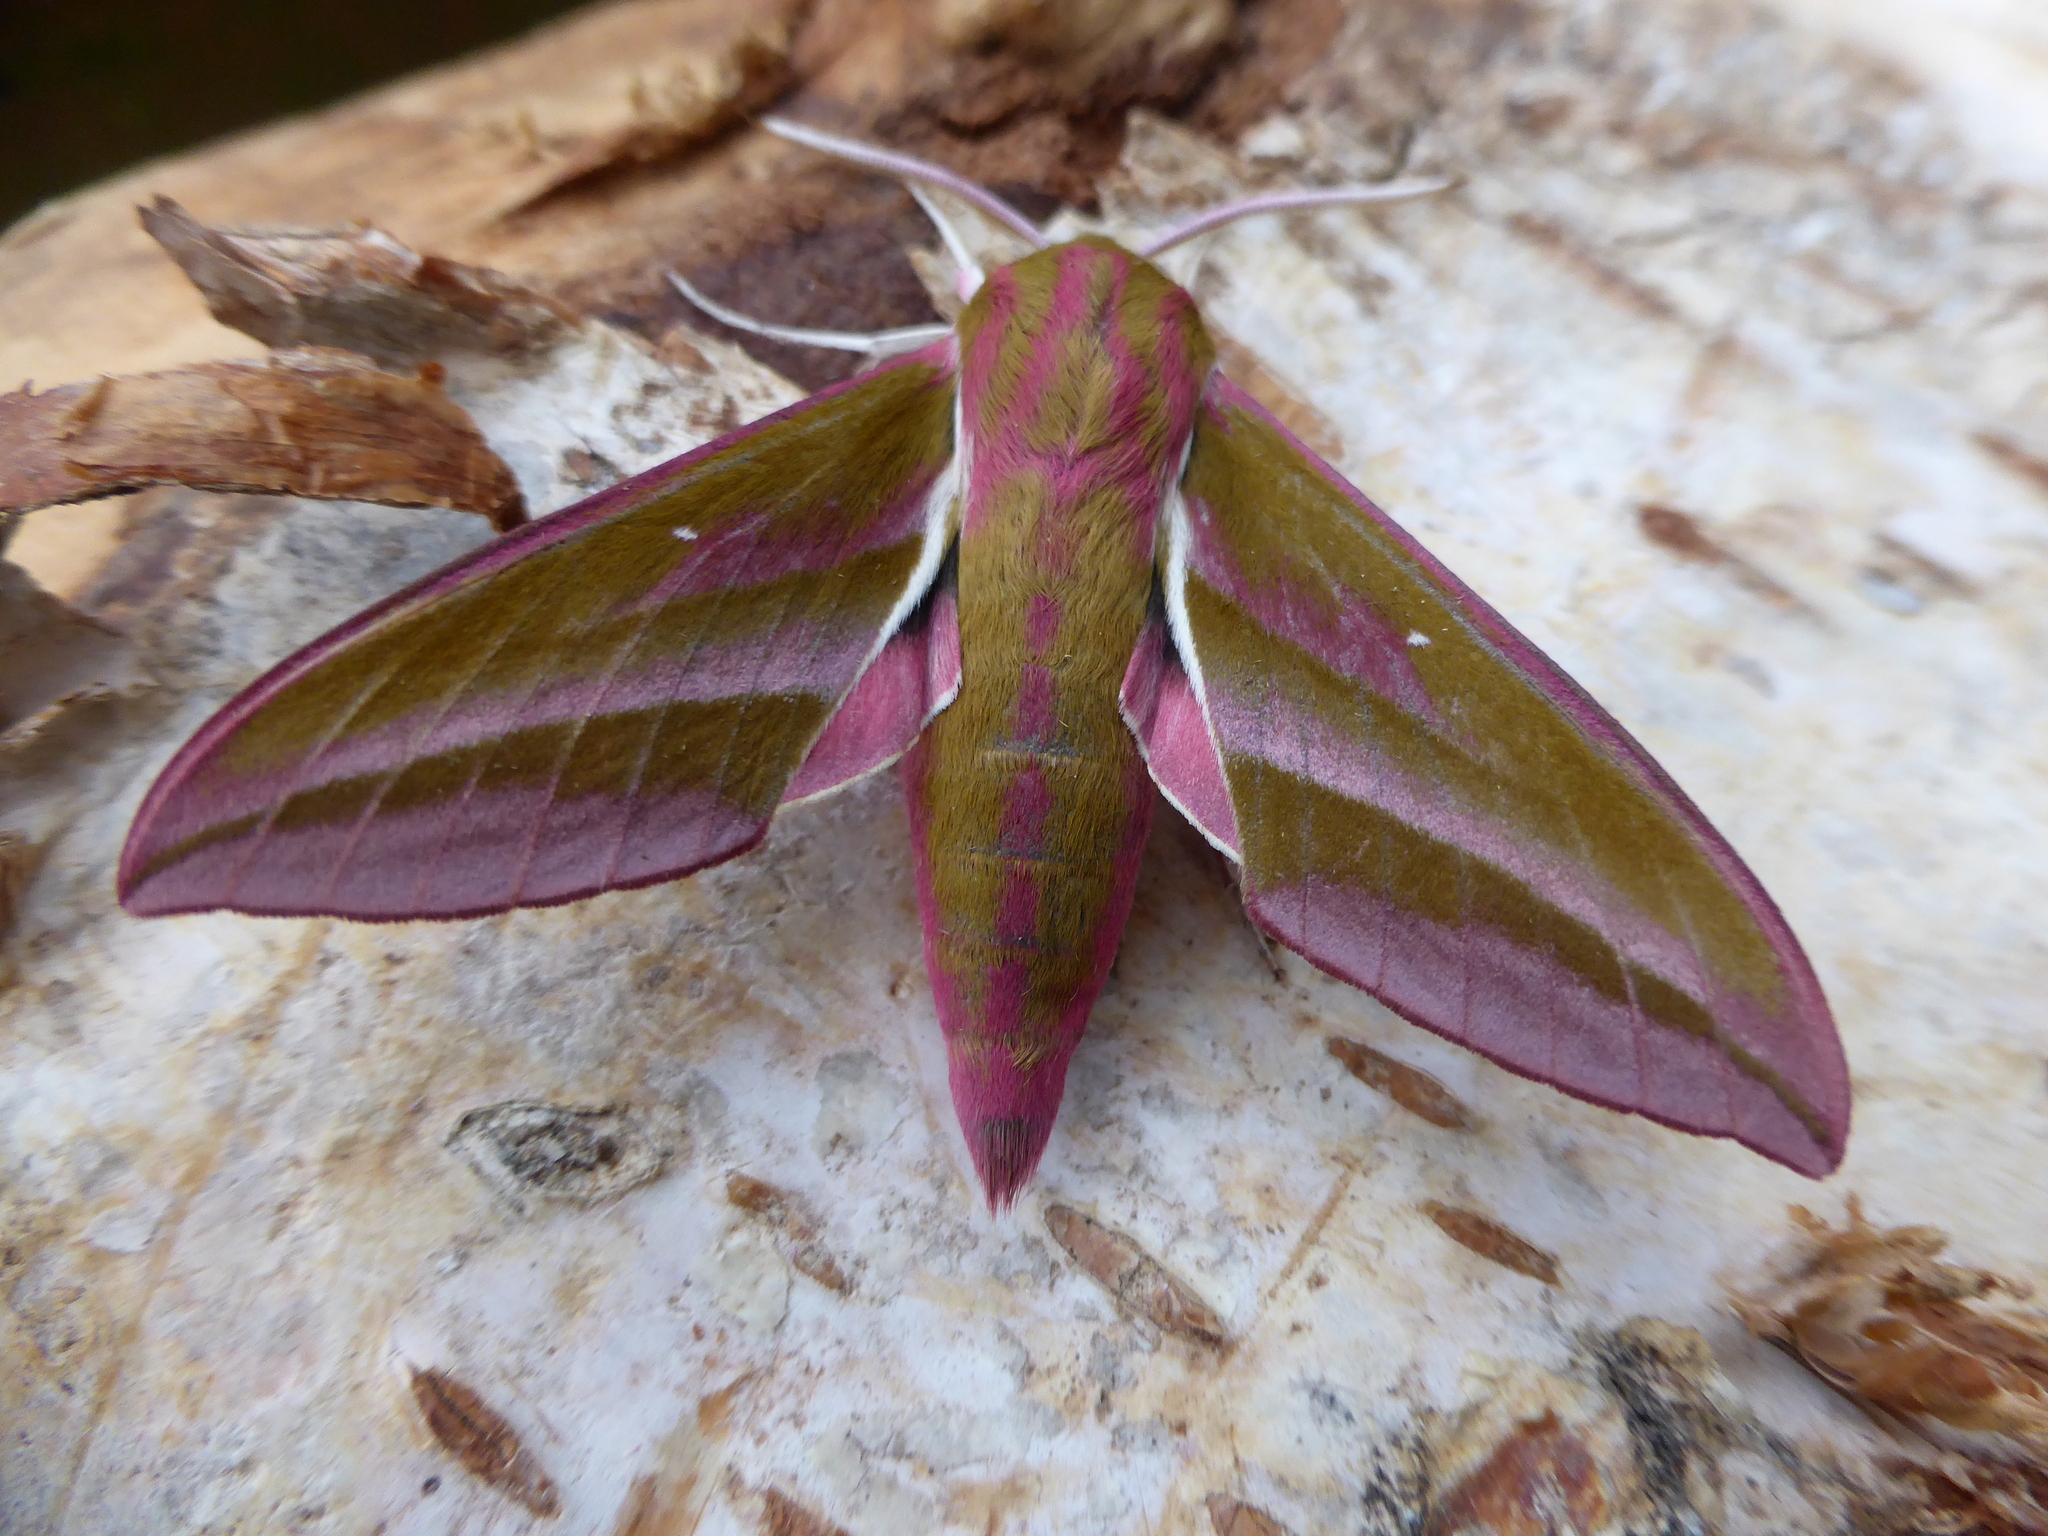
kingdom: Animalia
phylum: Arthropoda
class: Insecta
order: Lepidoptera
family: Sphingidae
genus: Deilephila
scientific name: Deilephila elpenor
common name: Elephant hawk-moth
